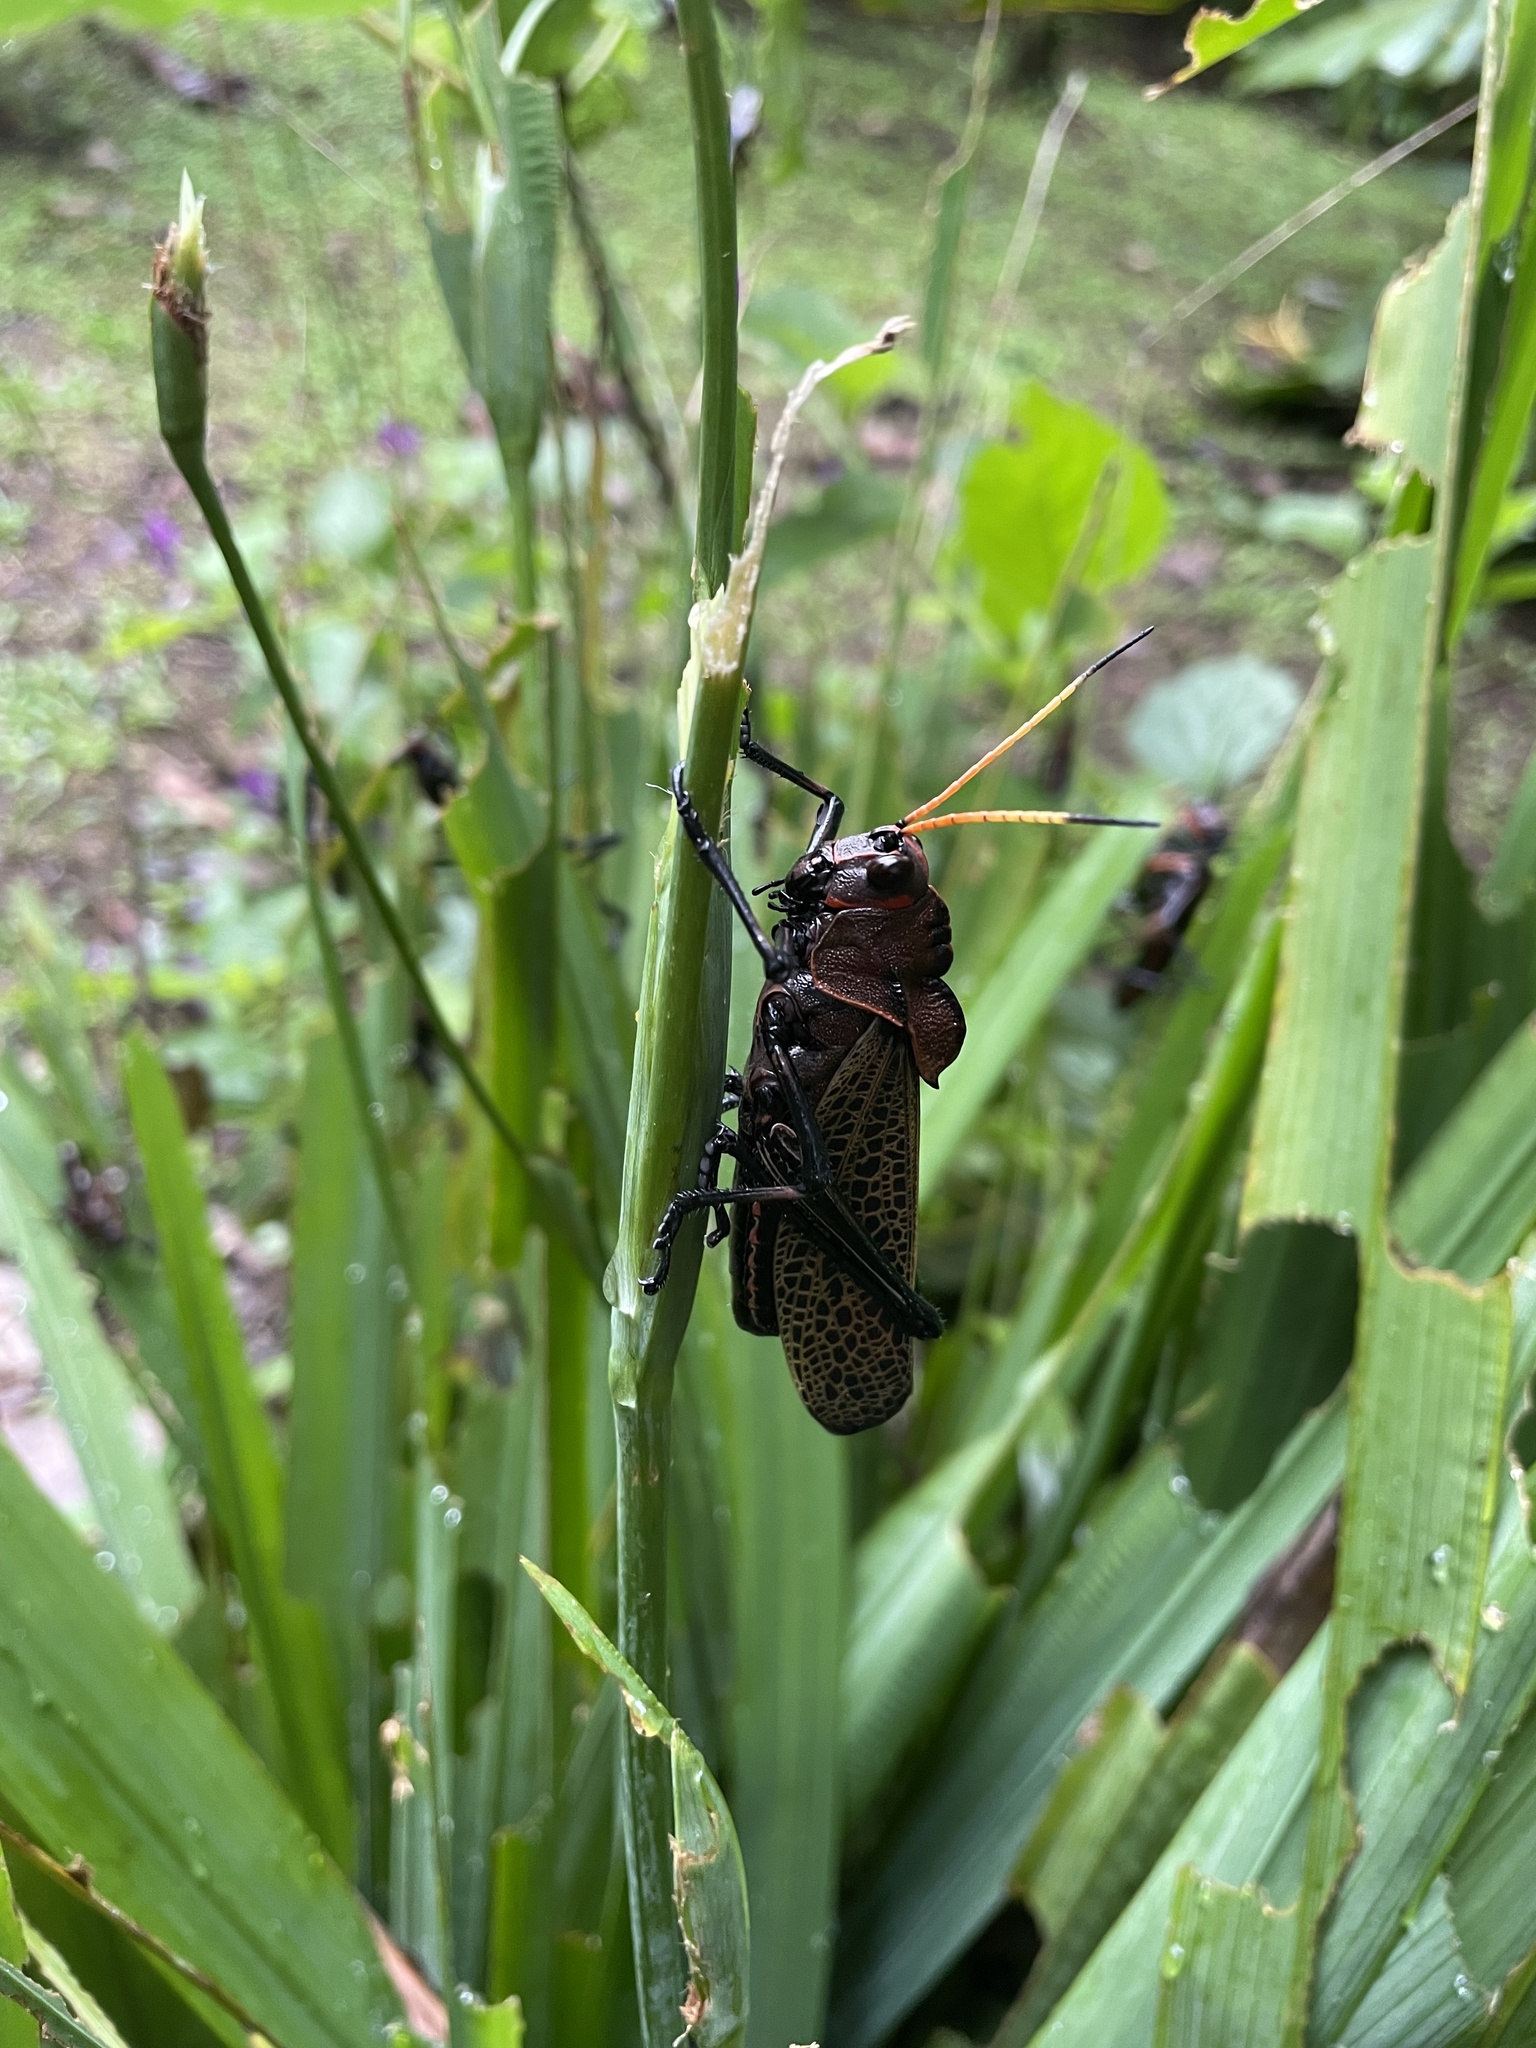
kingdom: Animalia
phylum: Arthropoda
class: Insecta
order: Orthoptera
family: Romaleidae
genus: Romalea
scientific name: Romalea
